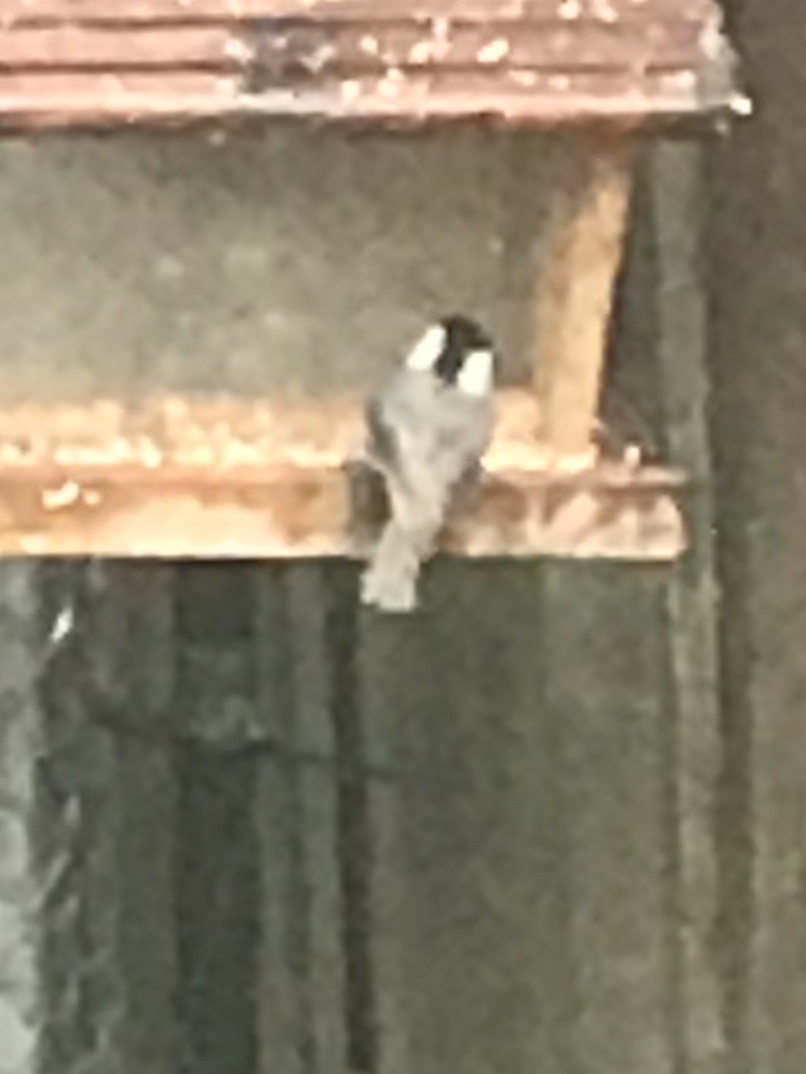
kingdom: Animalia
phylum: Chordata
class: Aves
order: Passeriformes
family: Paridae
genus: Poecile
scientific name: Poecile carolinensis
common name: Carolina chickadee
